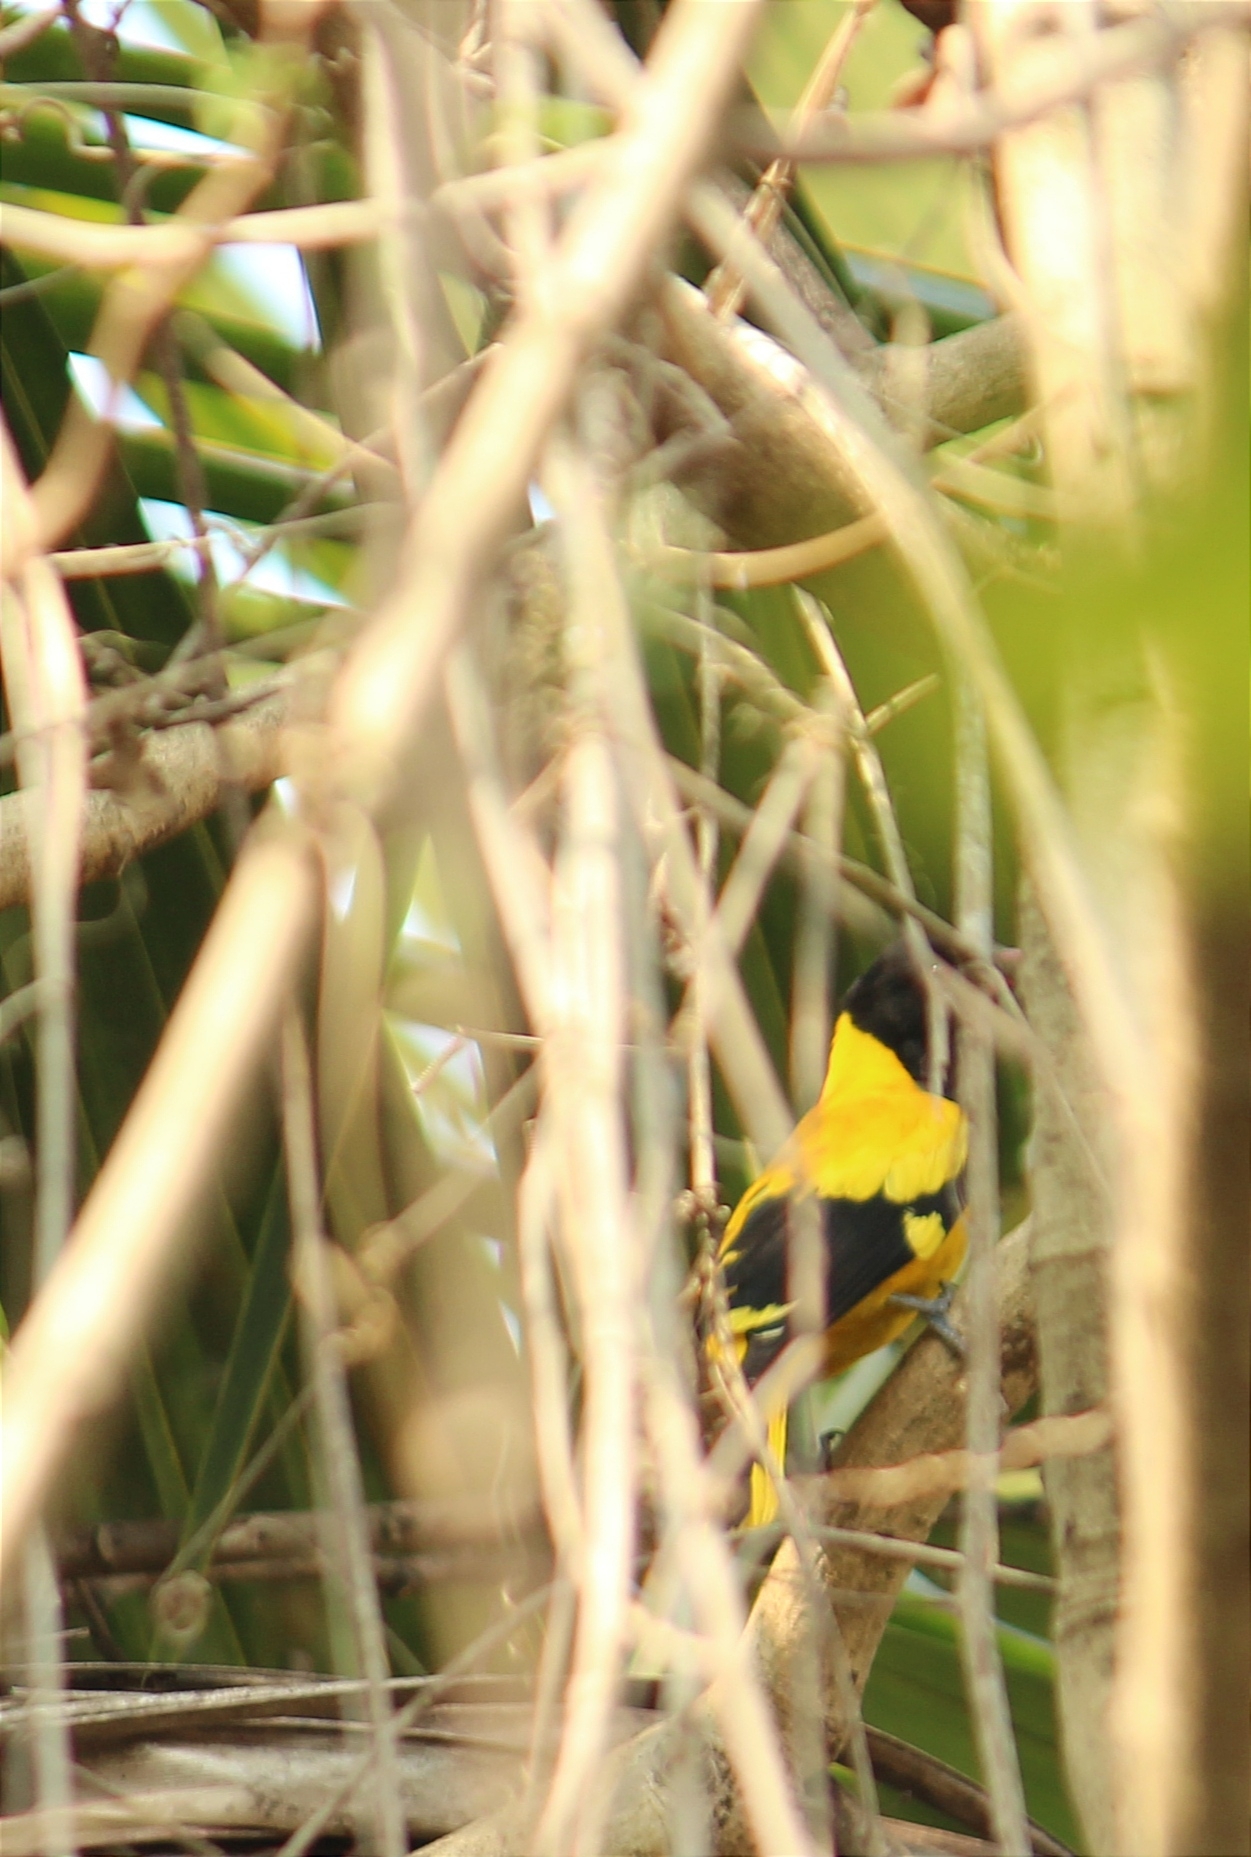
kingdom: Animalia
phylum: Chordata
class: Aves
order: Passeriformes
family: Oriolidae
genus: Oriolus
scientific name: Oriolus xanthornus
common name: Black-hooded oriole
